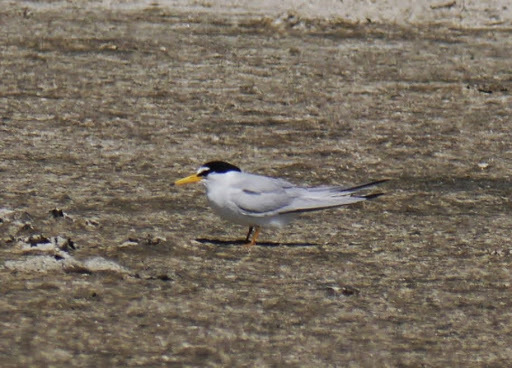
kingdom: Animalia
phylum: Chordata
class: Aves
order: Charadriiformes
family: Laridae
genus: Sternula
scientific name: Sternula antillarum
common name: Least tern
